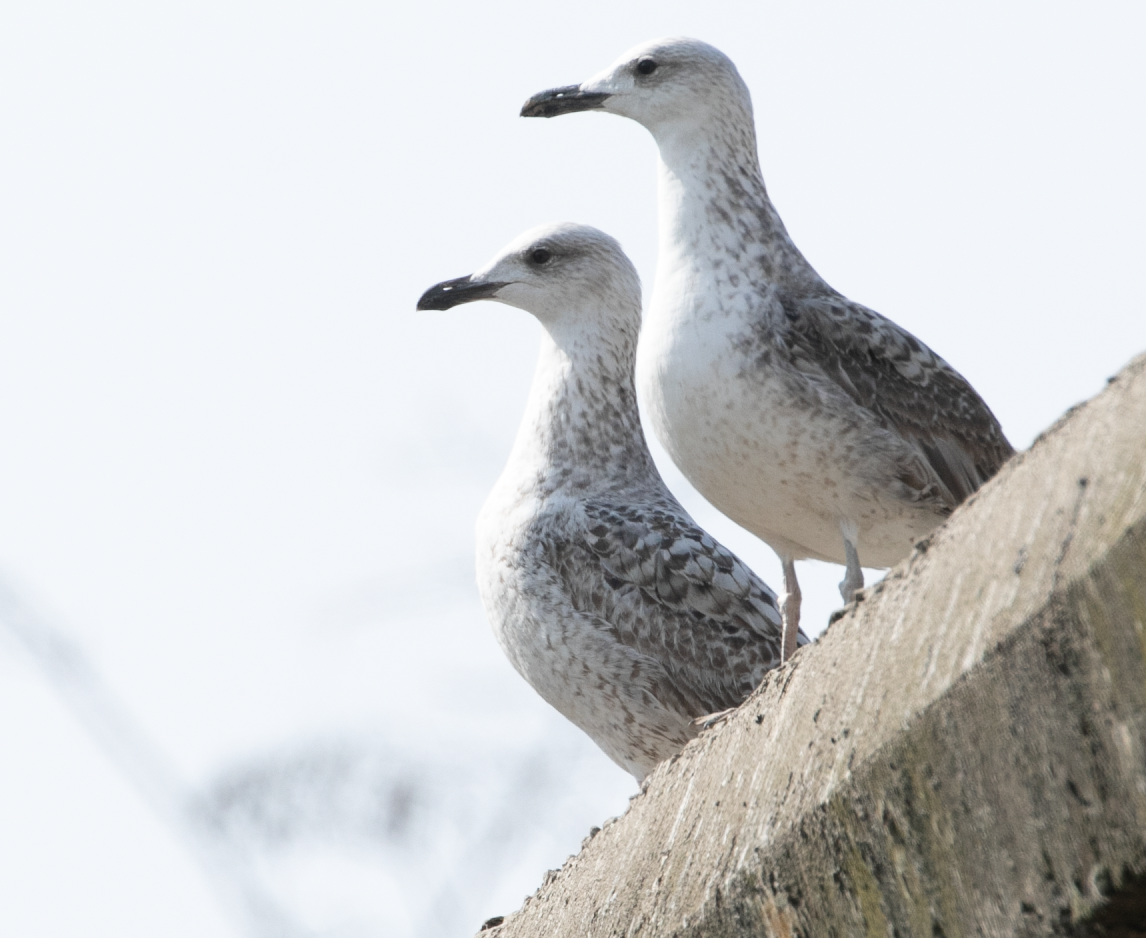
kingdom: Animalia
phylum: Chordata
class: Aves
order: Charadriiformes
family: Laridae
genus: Larus
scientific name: Larus michahellis
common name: Yellow-legged gull
